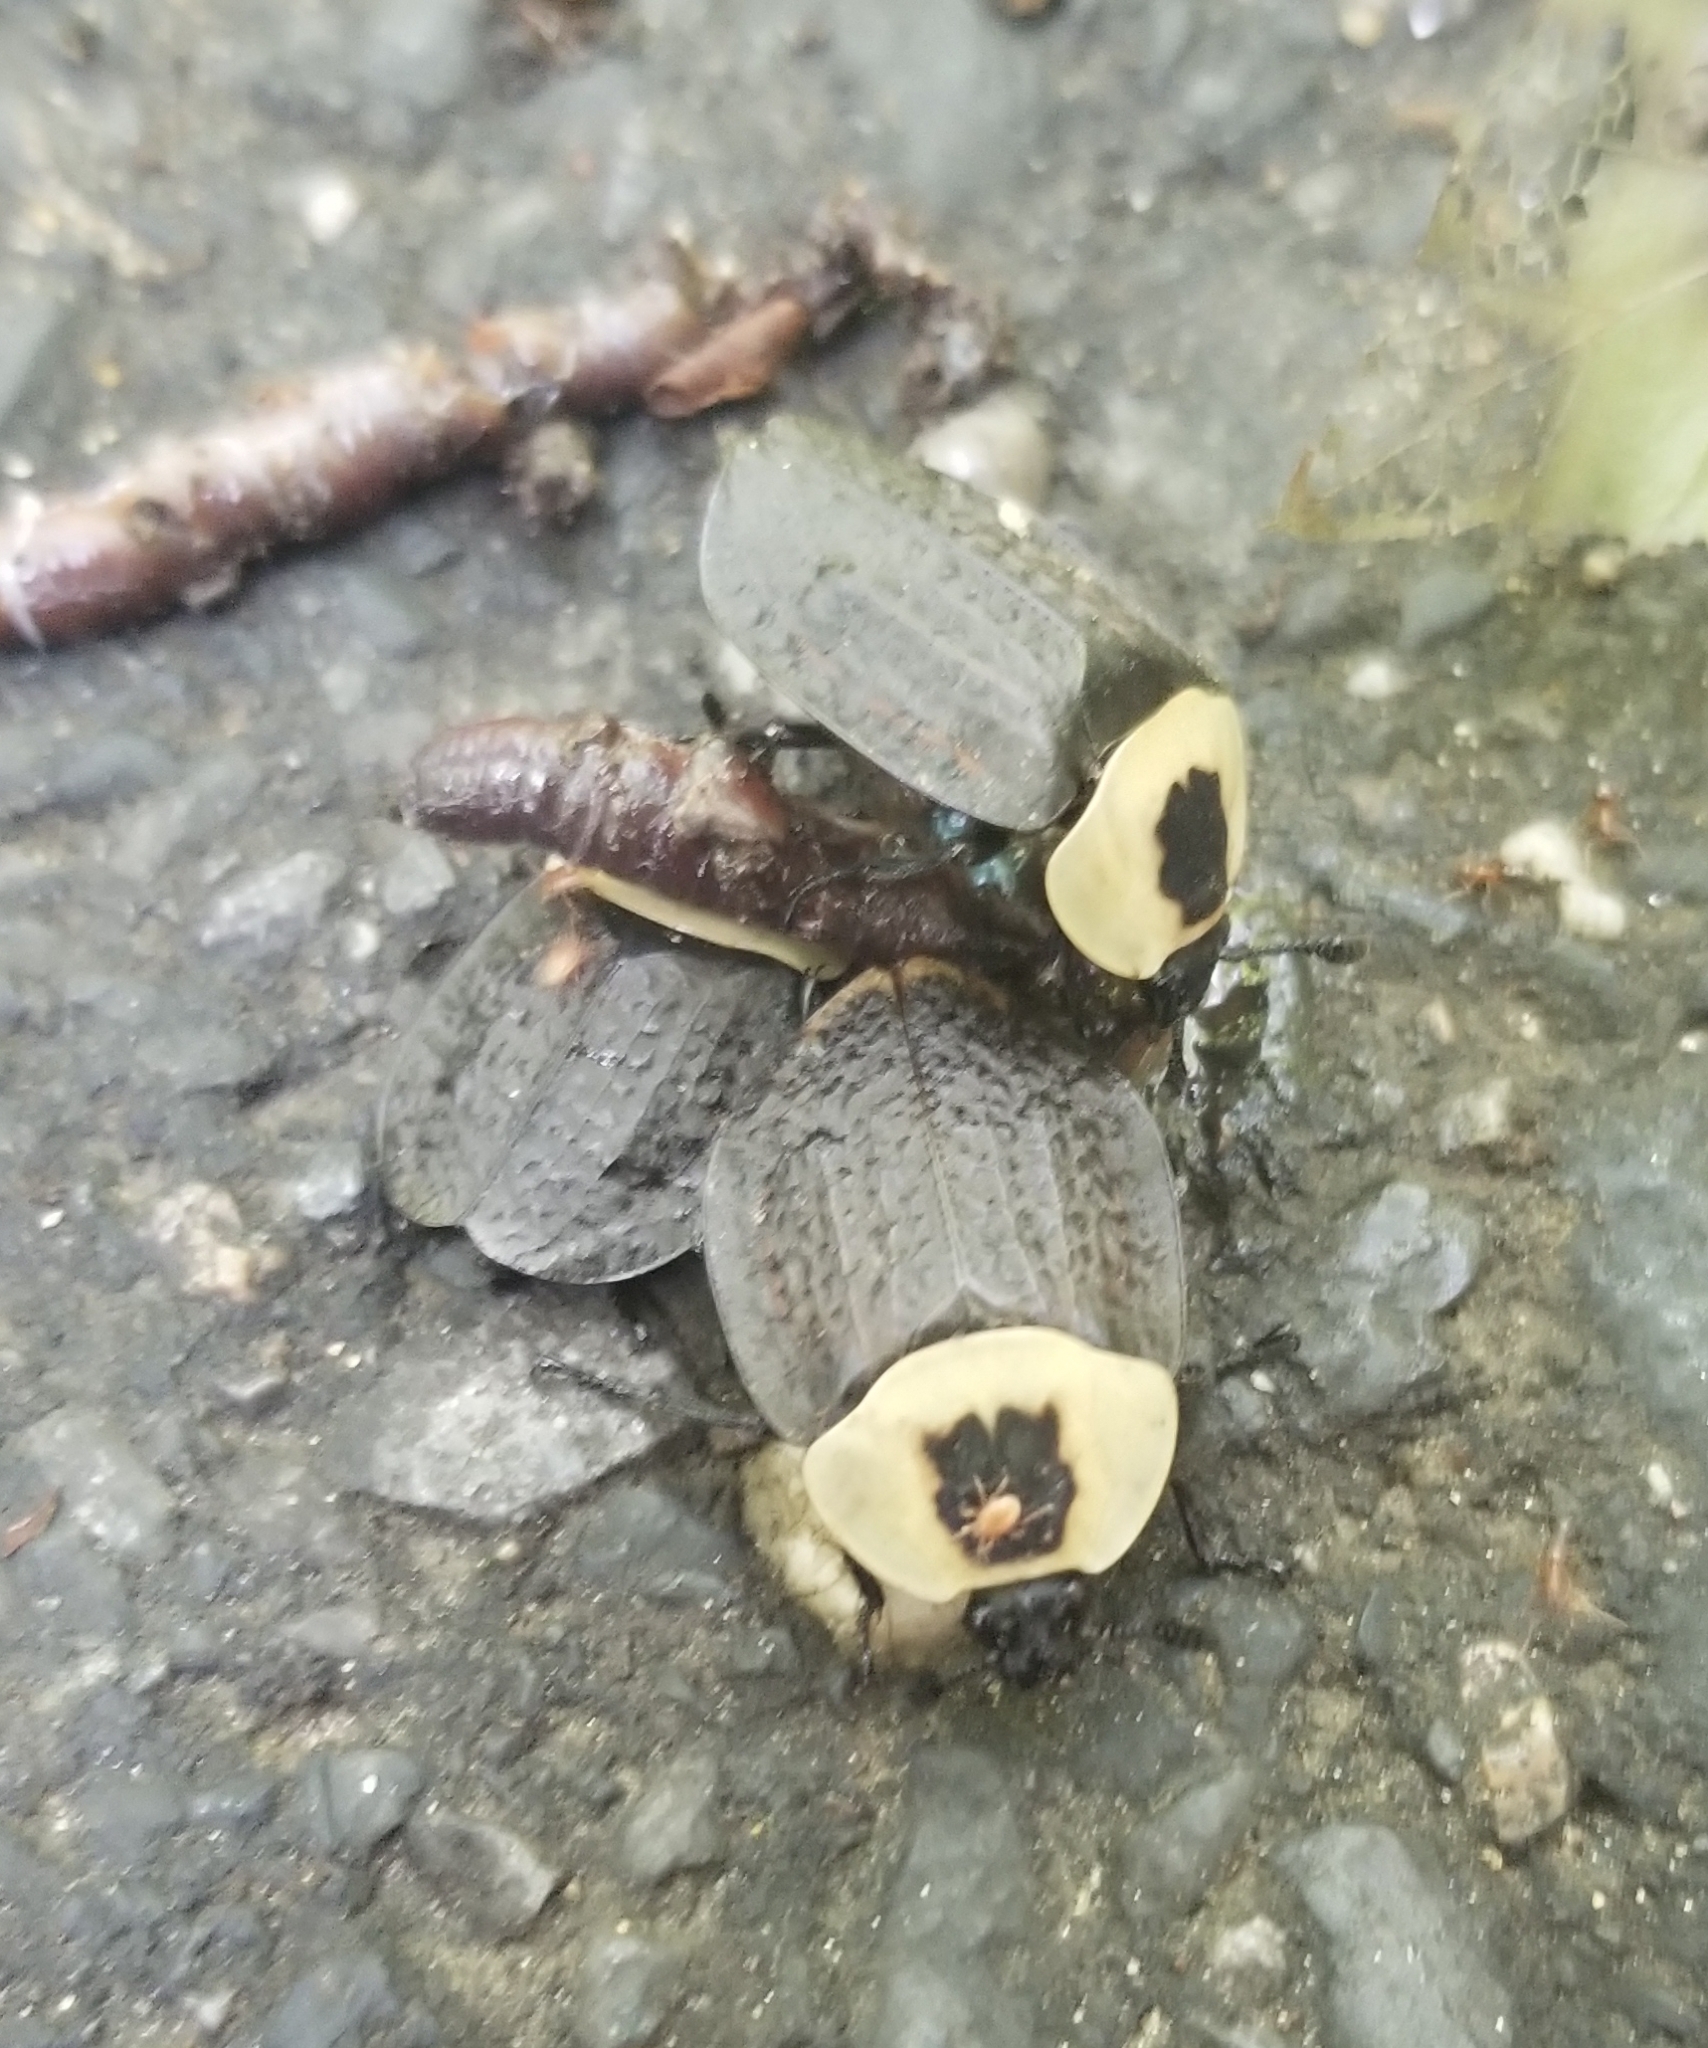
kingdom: Animalia
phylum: Arthropoda
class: Insecta
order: Coleoptera
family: Staphylinidae
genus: Necrophila
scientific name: Necrophila americana
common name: American carrion beetle
